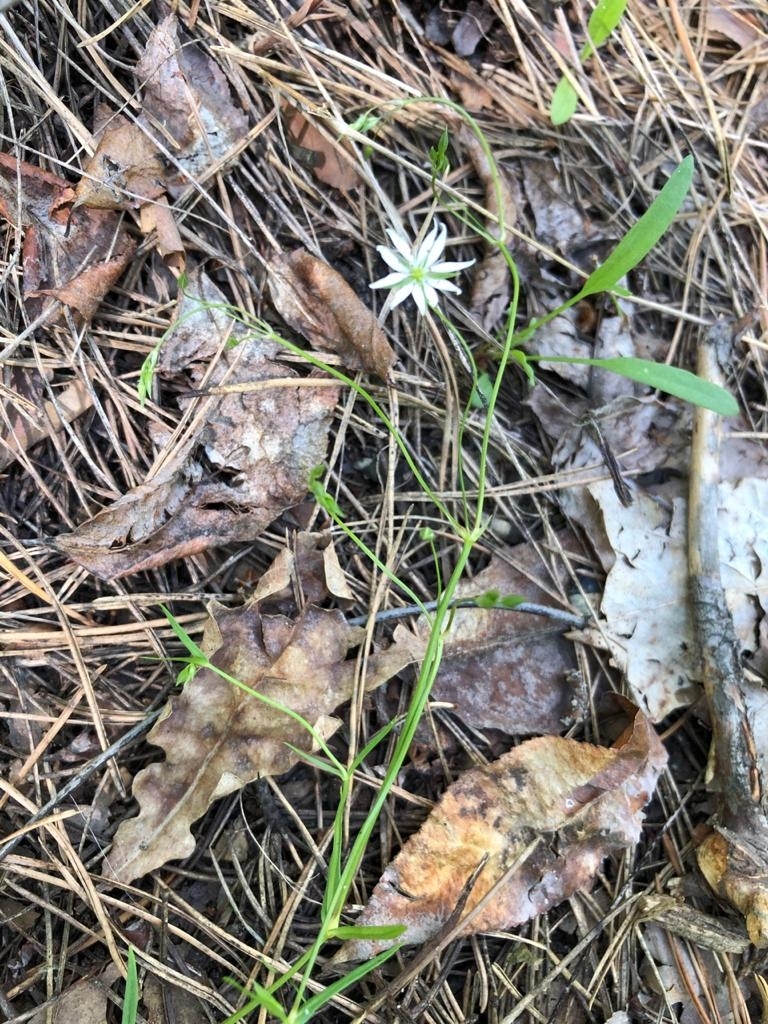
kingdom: Plantae
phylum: Tracheophyta
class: Magnoliopsida
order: Caryophyllales
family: Caryophyllaceae
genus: Stellaria
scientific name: Stellaria graminea
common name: Grass-like starwort
